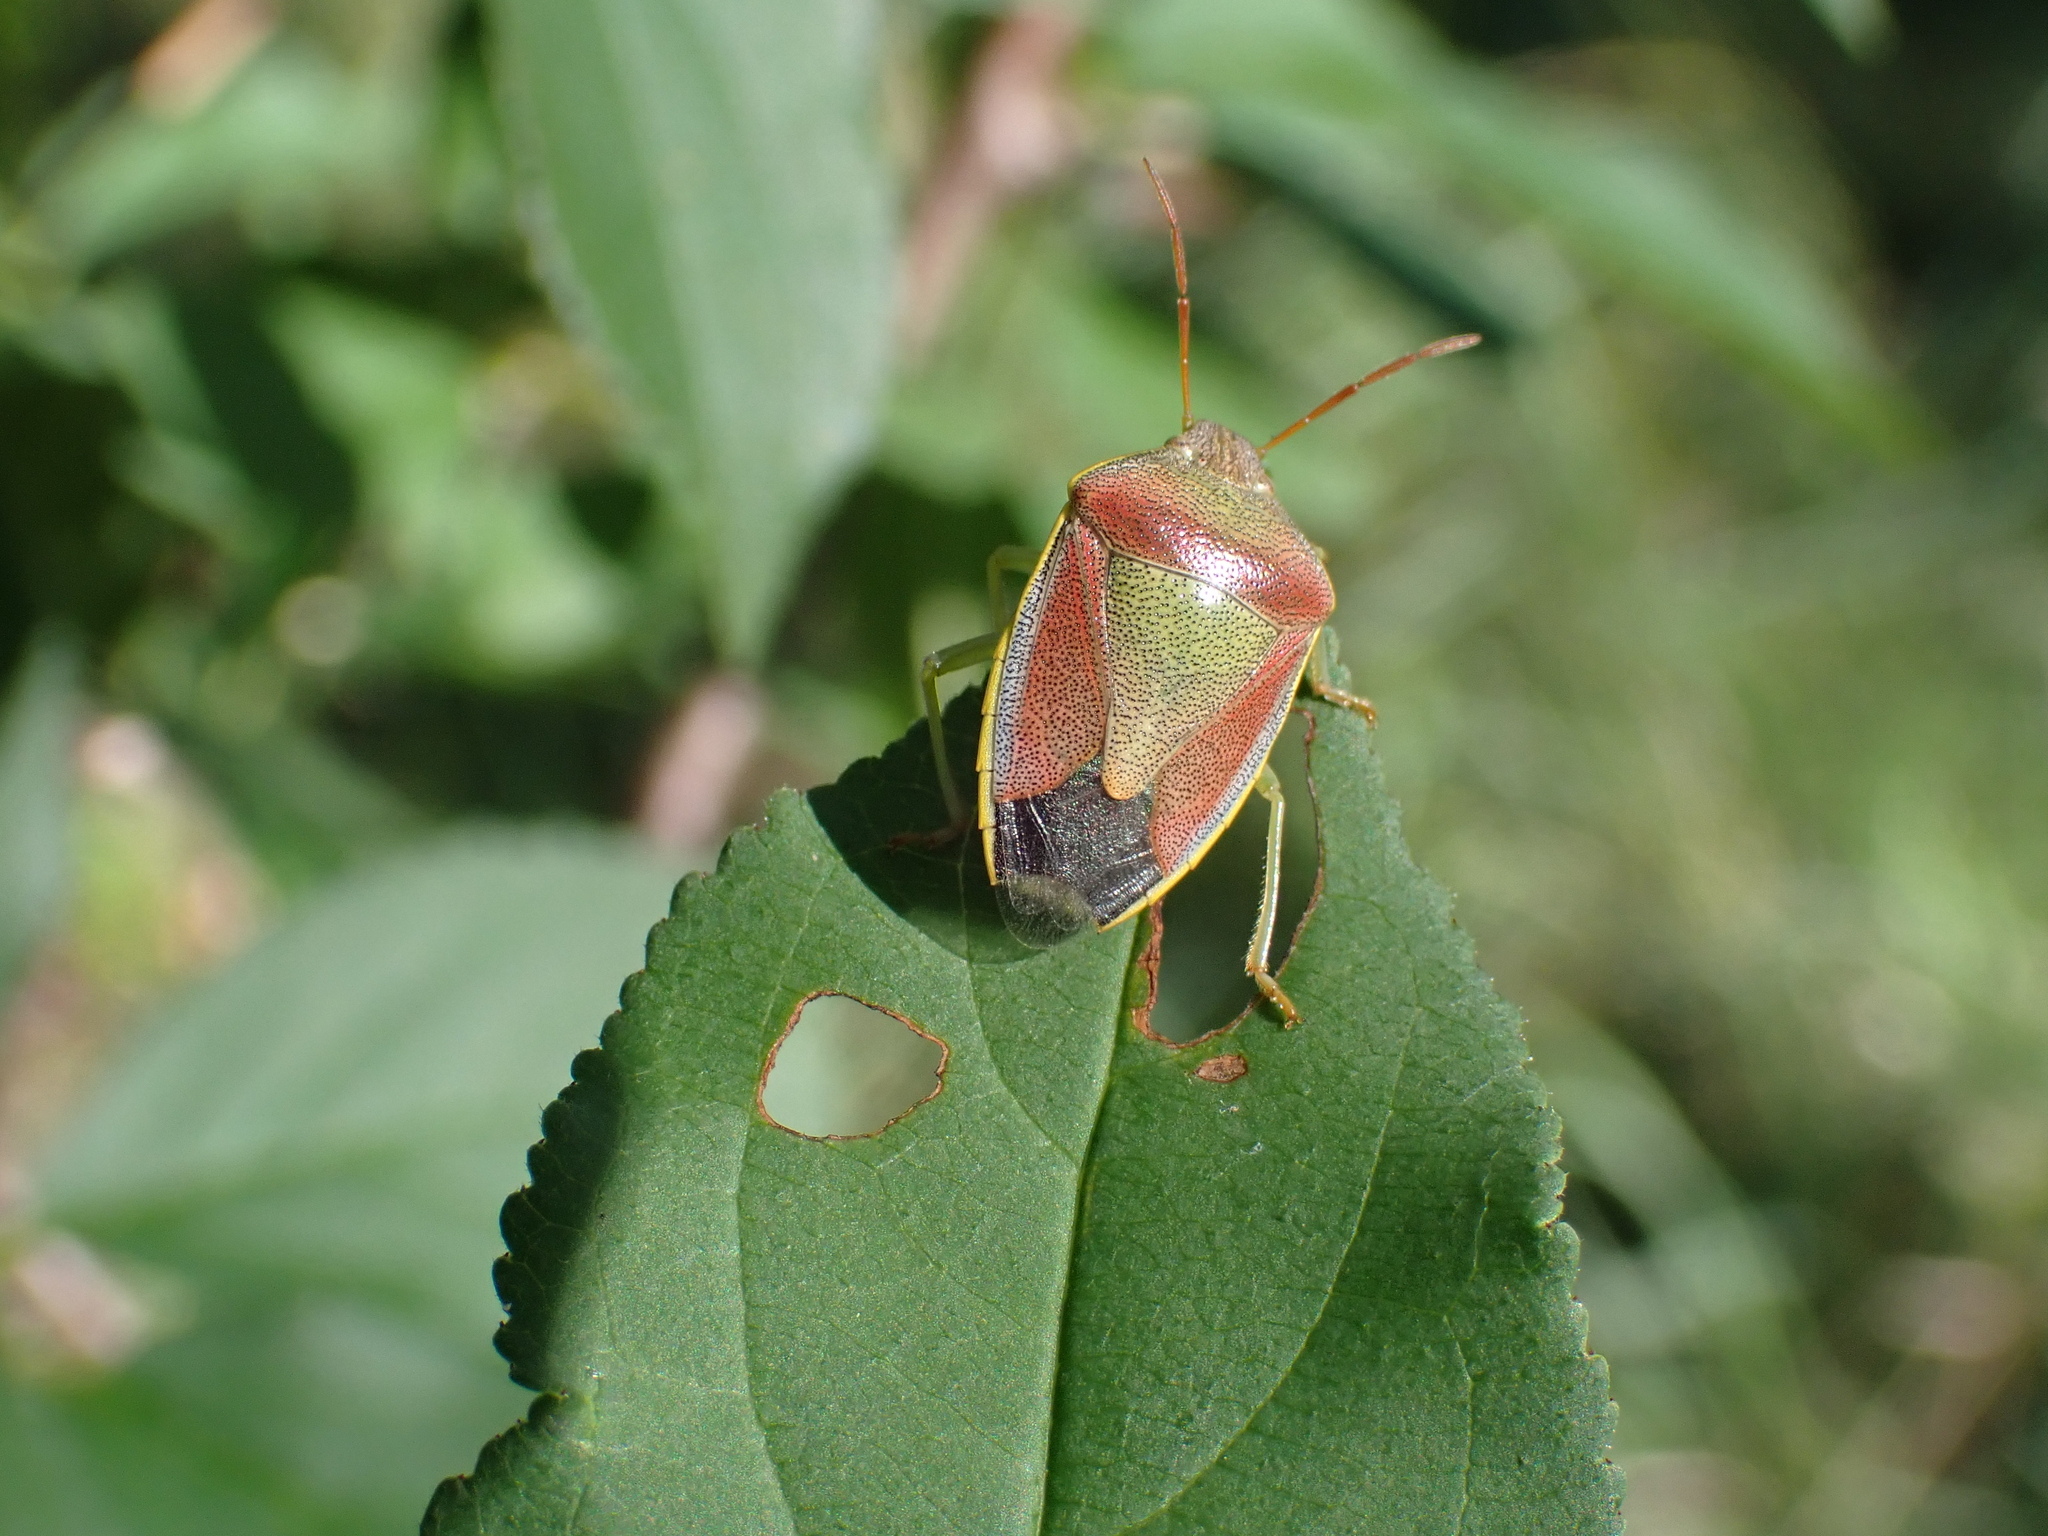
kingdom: Animalia
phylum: Arthropoda
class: Insecta
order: Hemiptera
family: Pentatomidae
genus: Piezodorus
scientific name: Piezodorus lituratus
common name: Stink bug
